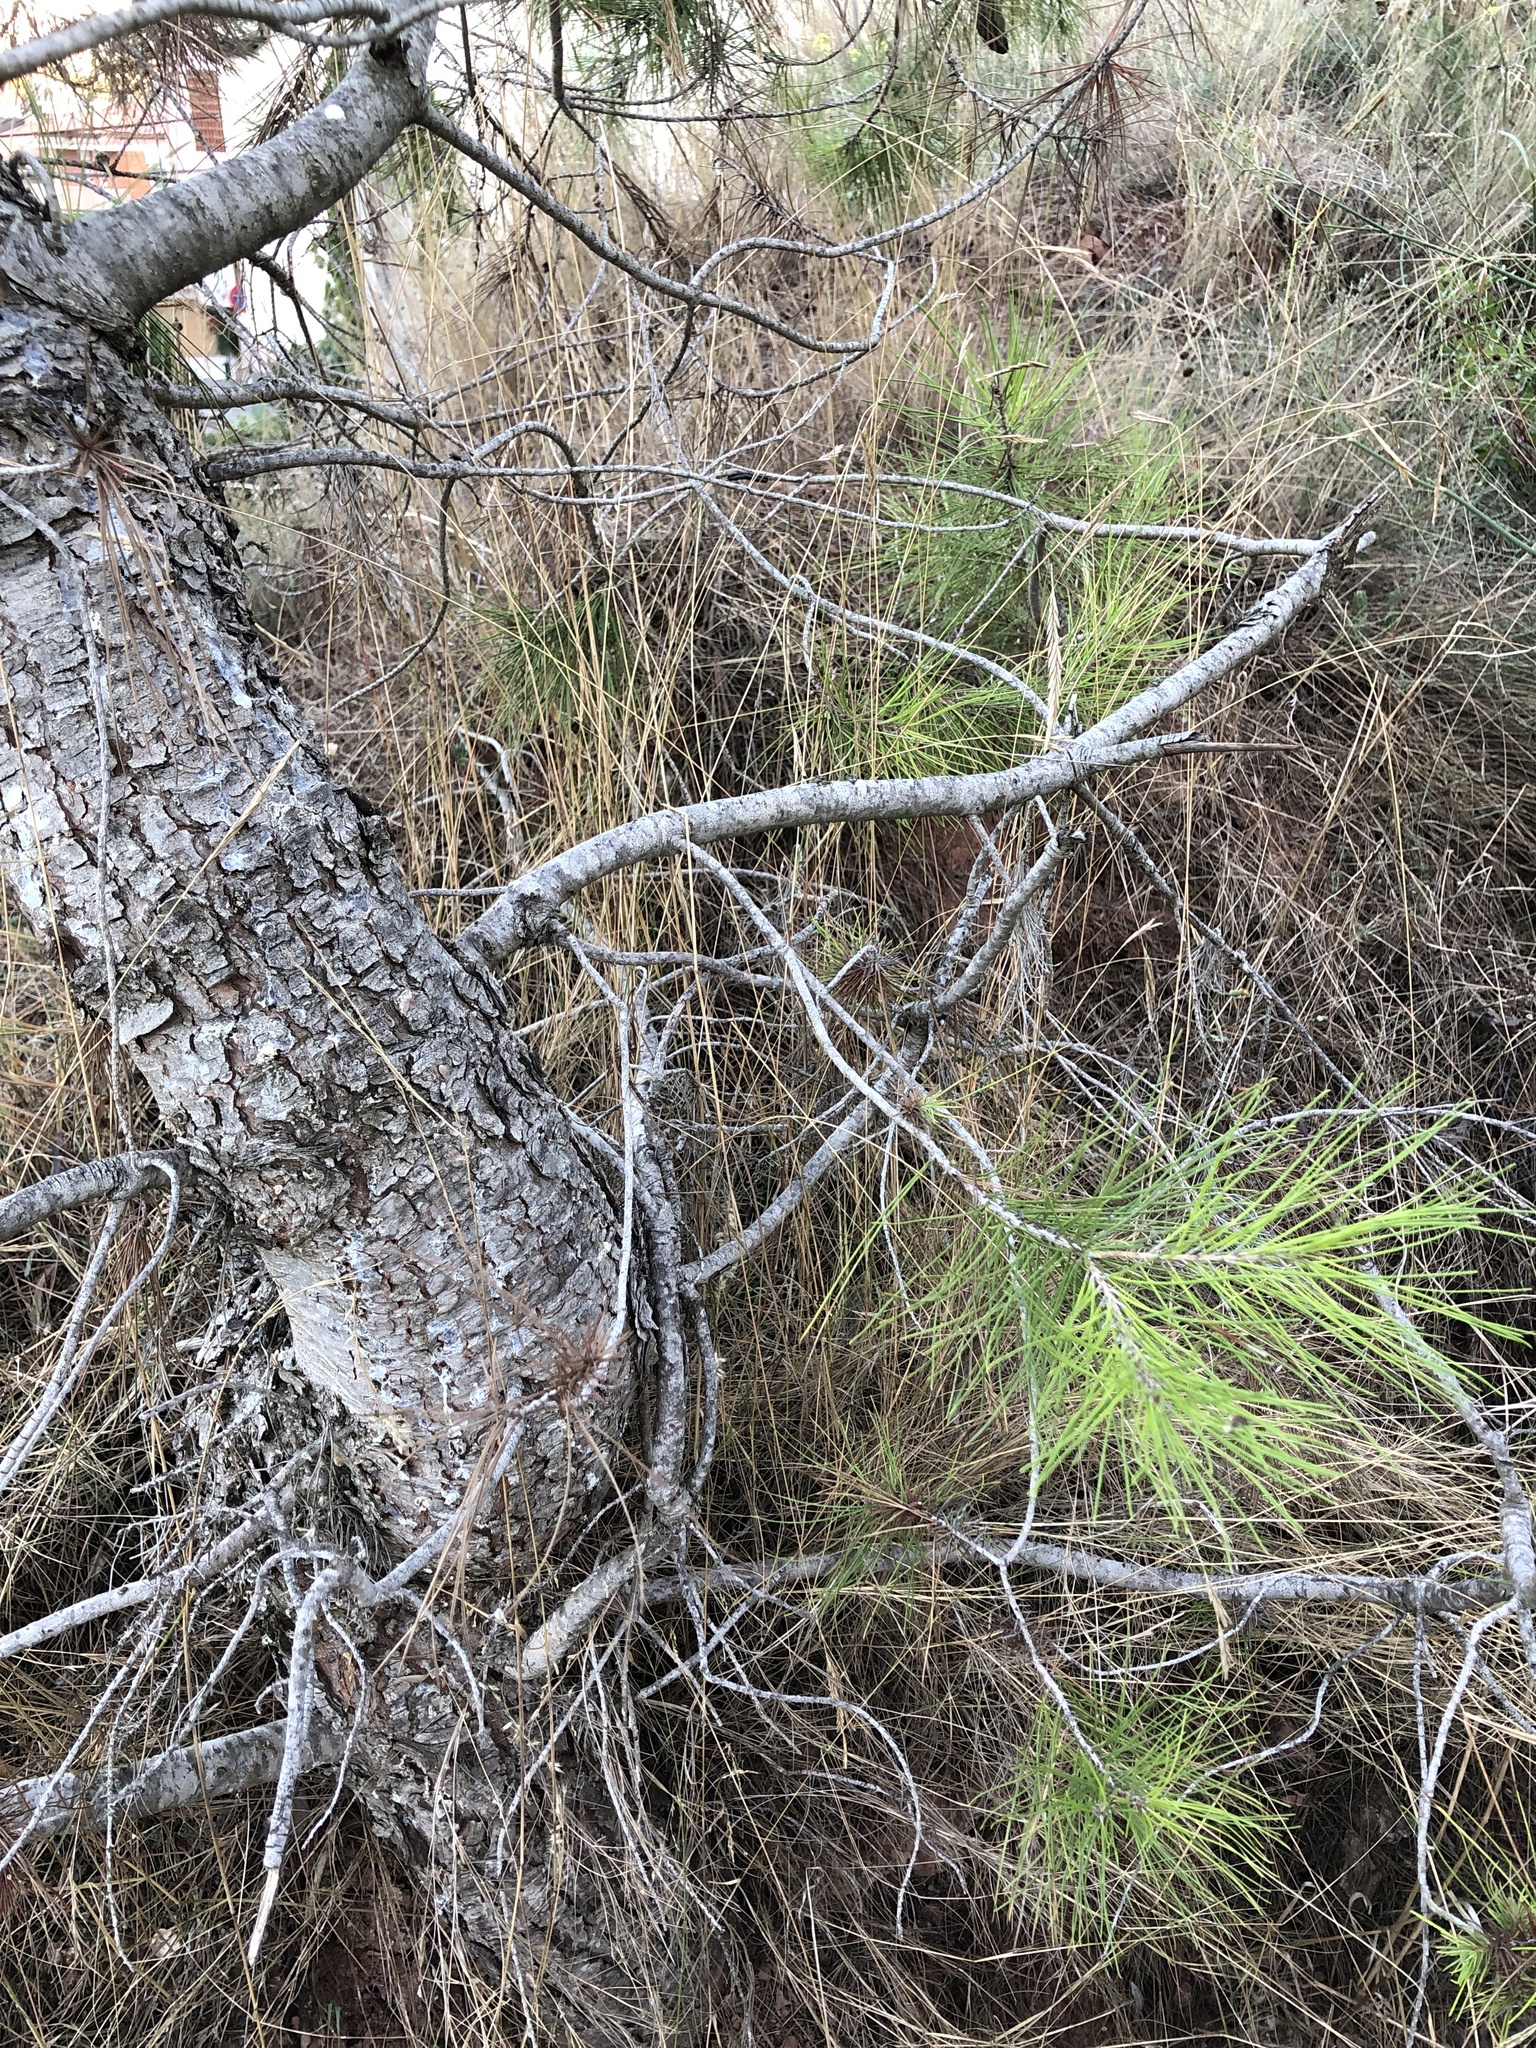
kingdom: Plantae
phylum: Tracheophyta
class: Pinopsida
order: Pinales
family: Pinaceae
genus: Pinus
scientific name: Pinus halepensis
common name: Aleppo pine
